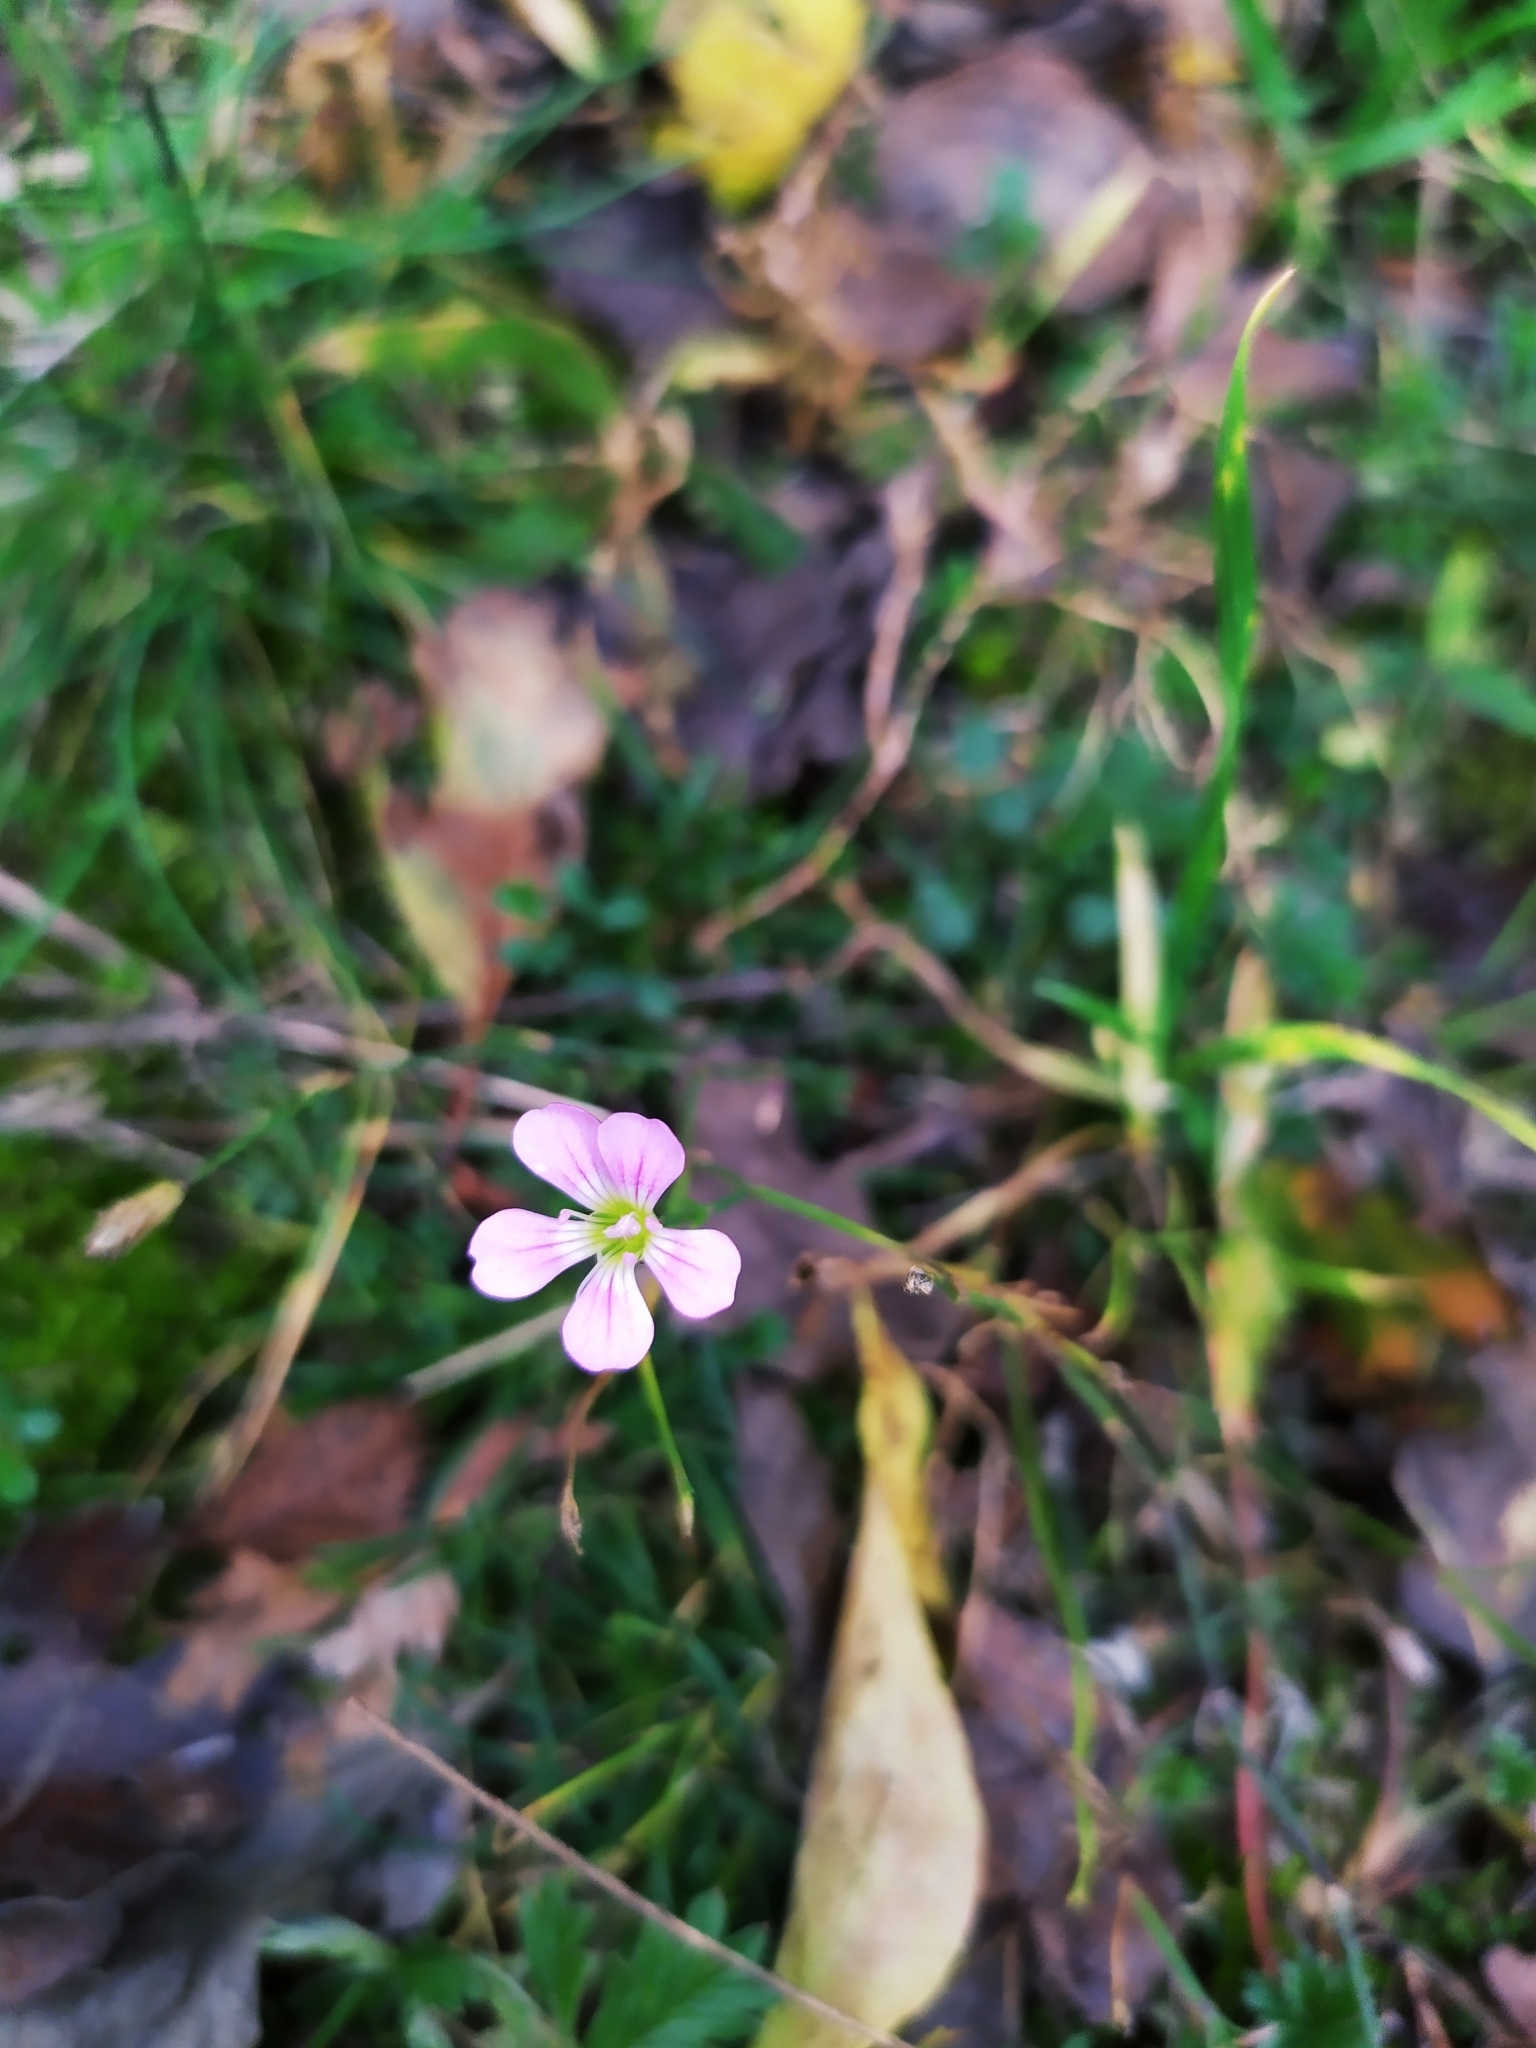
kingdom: Plantae
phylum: Tracheophyta
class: Magnoliopsida
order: Caryophyllales
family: Caryophyllaceae
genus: Petrorhagia
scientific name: Petrorhagia saxifraga
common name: Tunicflower
